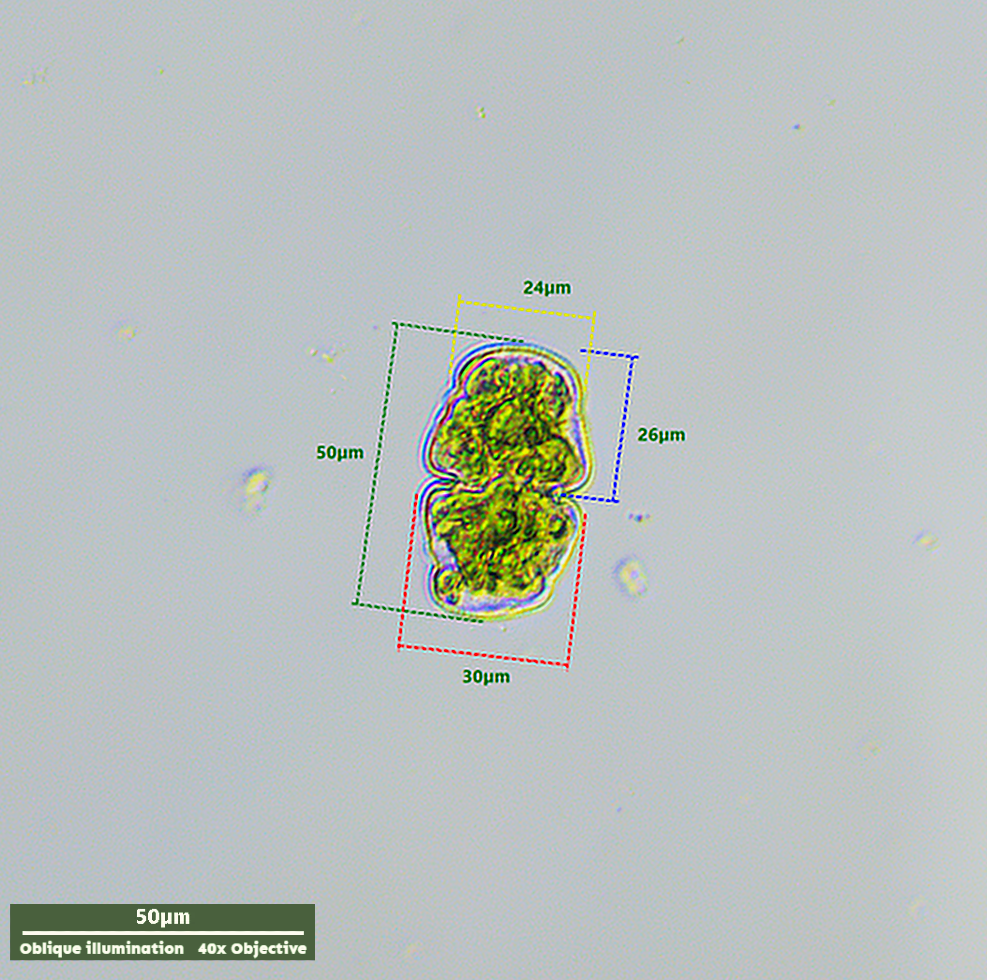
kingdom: Plantae
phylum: Charophyta
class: Conjugatophyceae
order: Desmidiales
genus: Cosmarium
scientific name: Cosmarium holmiense
